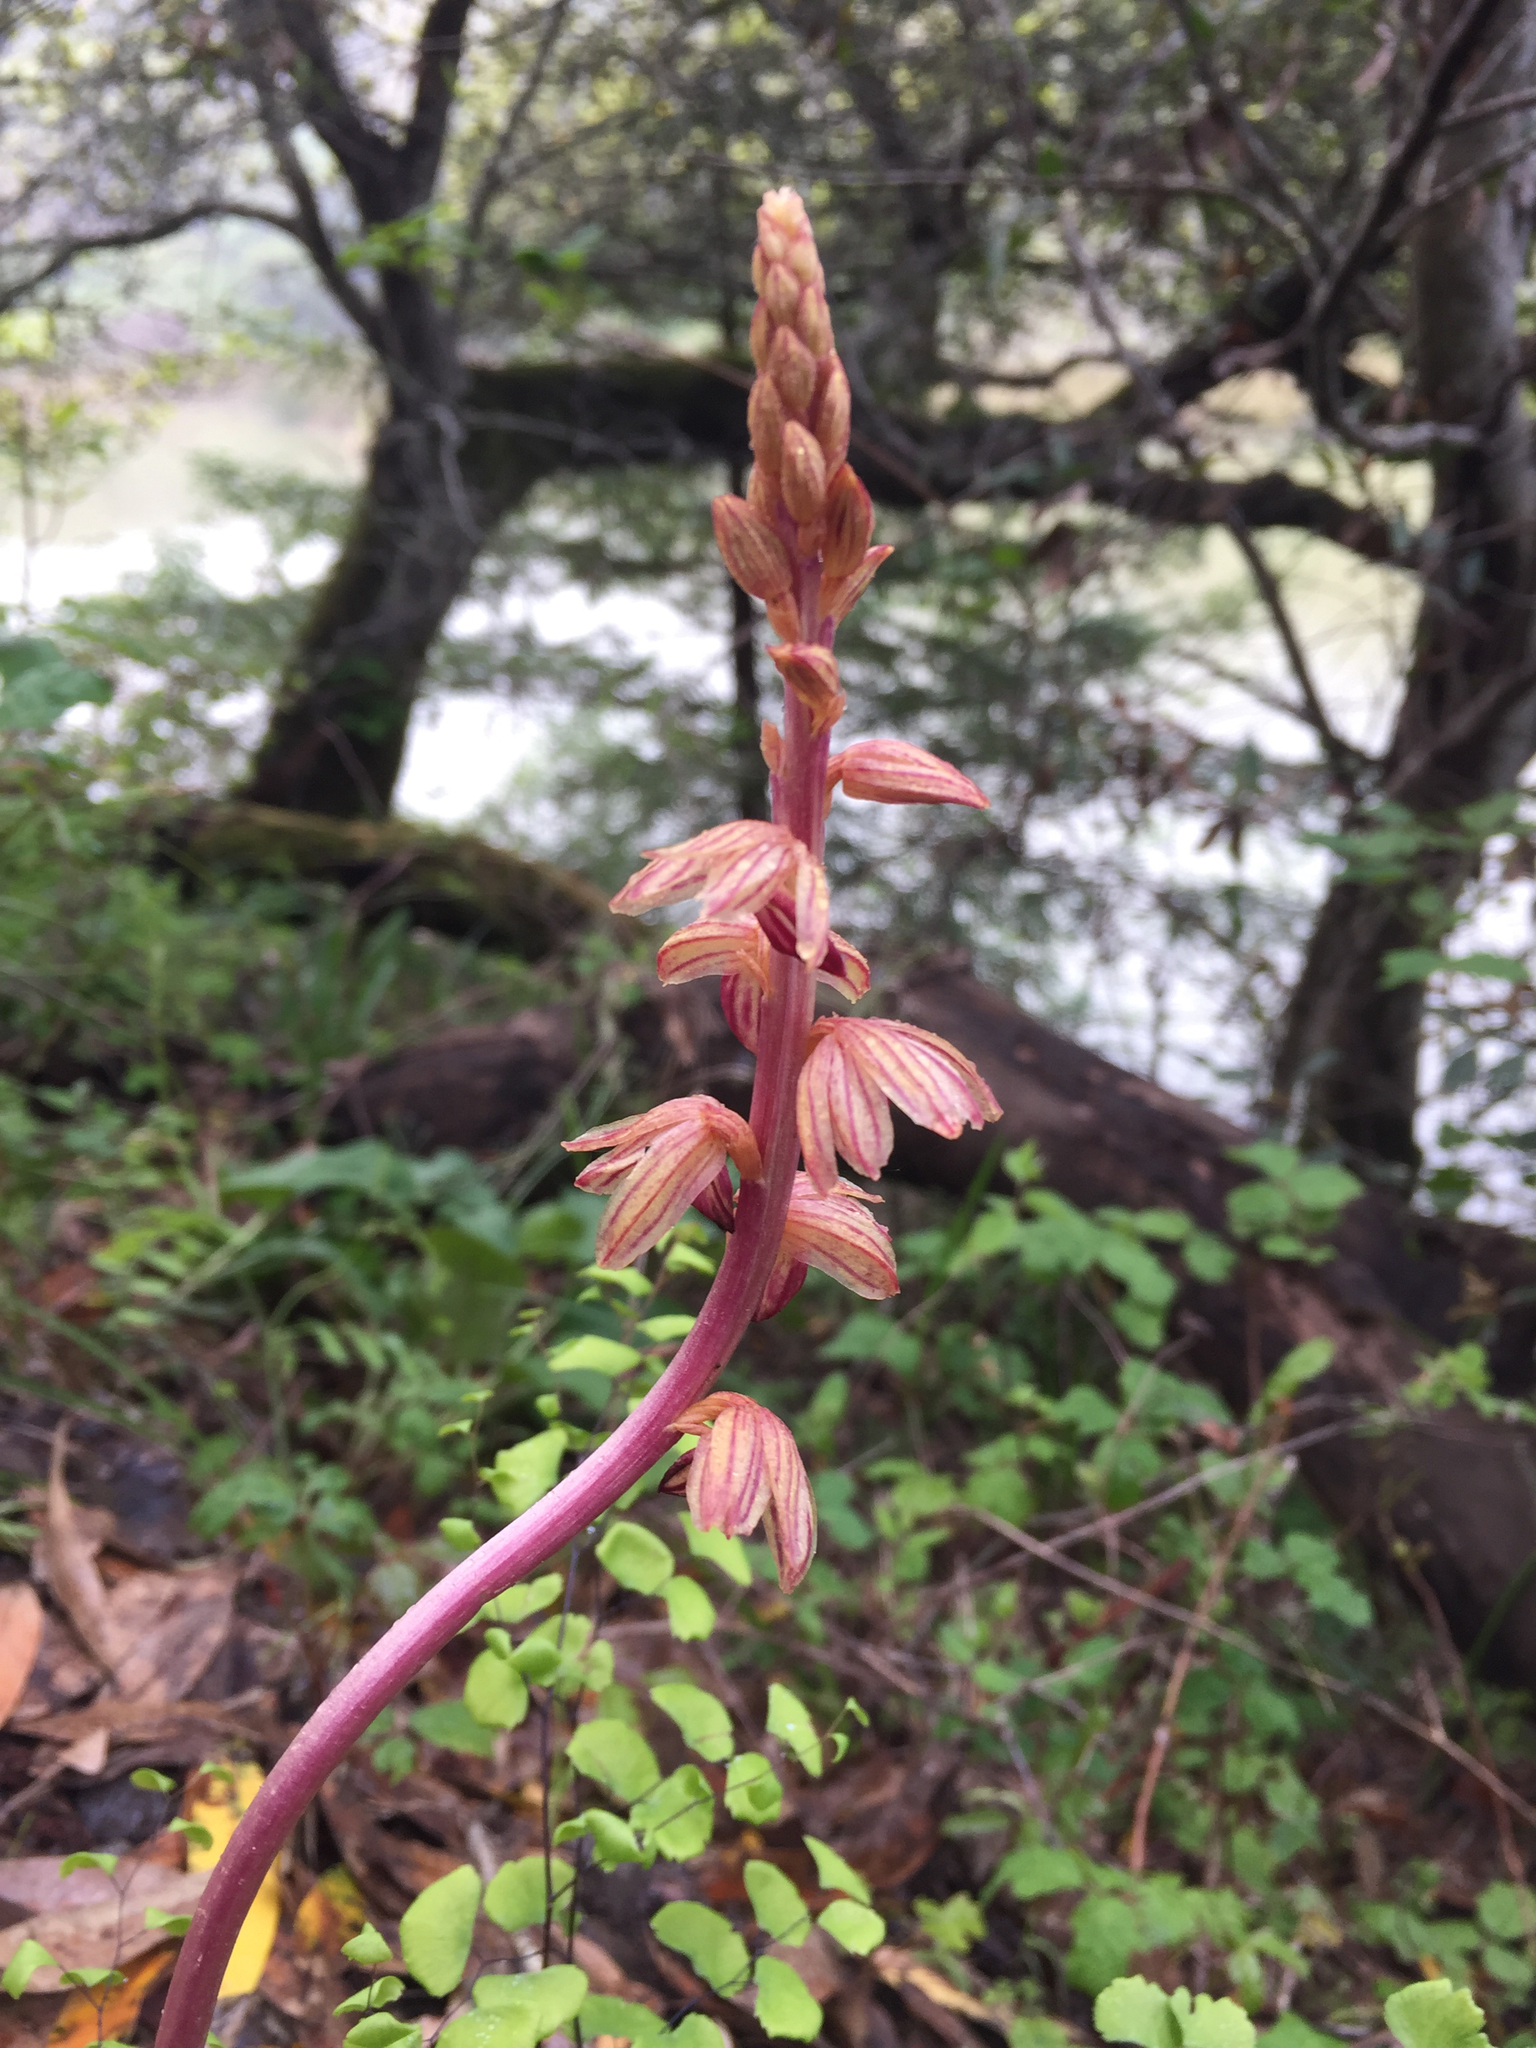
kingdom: Plantae
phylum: Tracheophyta
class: Liliopsida
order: Asparagales
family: Orchidaceae
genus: Corallorhiza
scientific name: Corallorhiza striata
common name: Hooded coralroot
